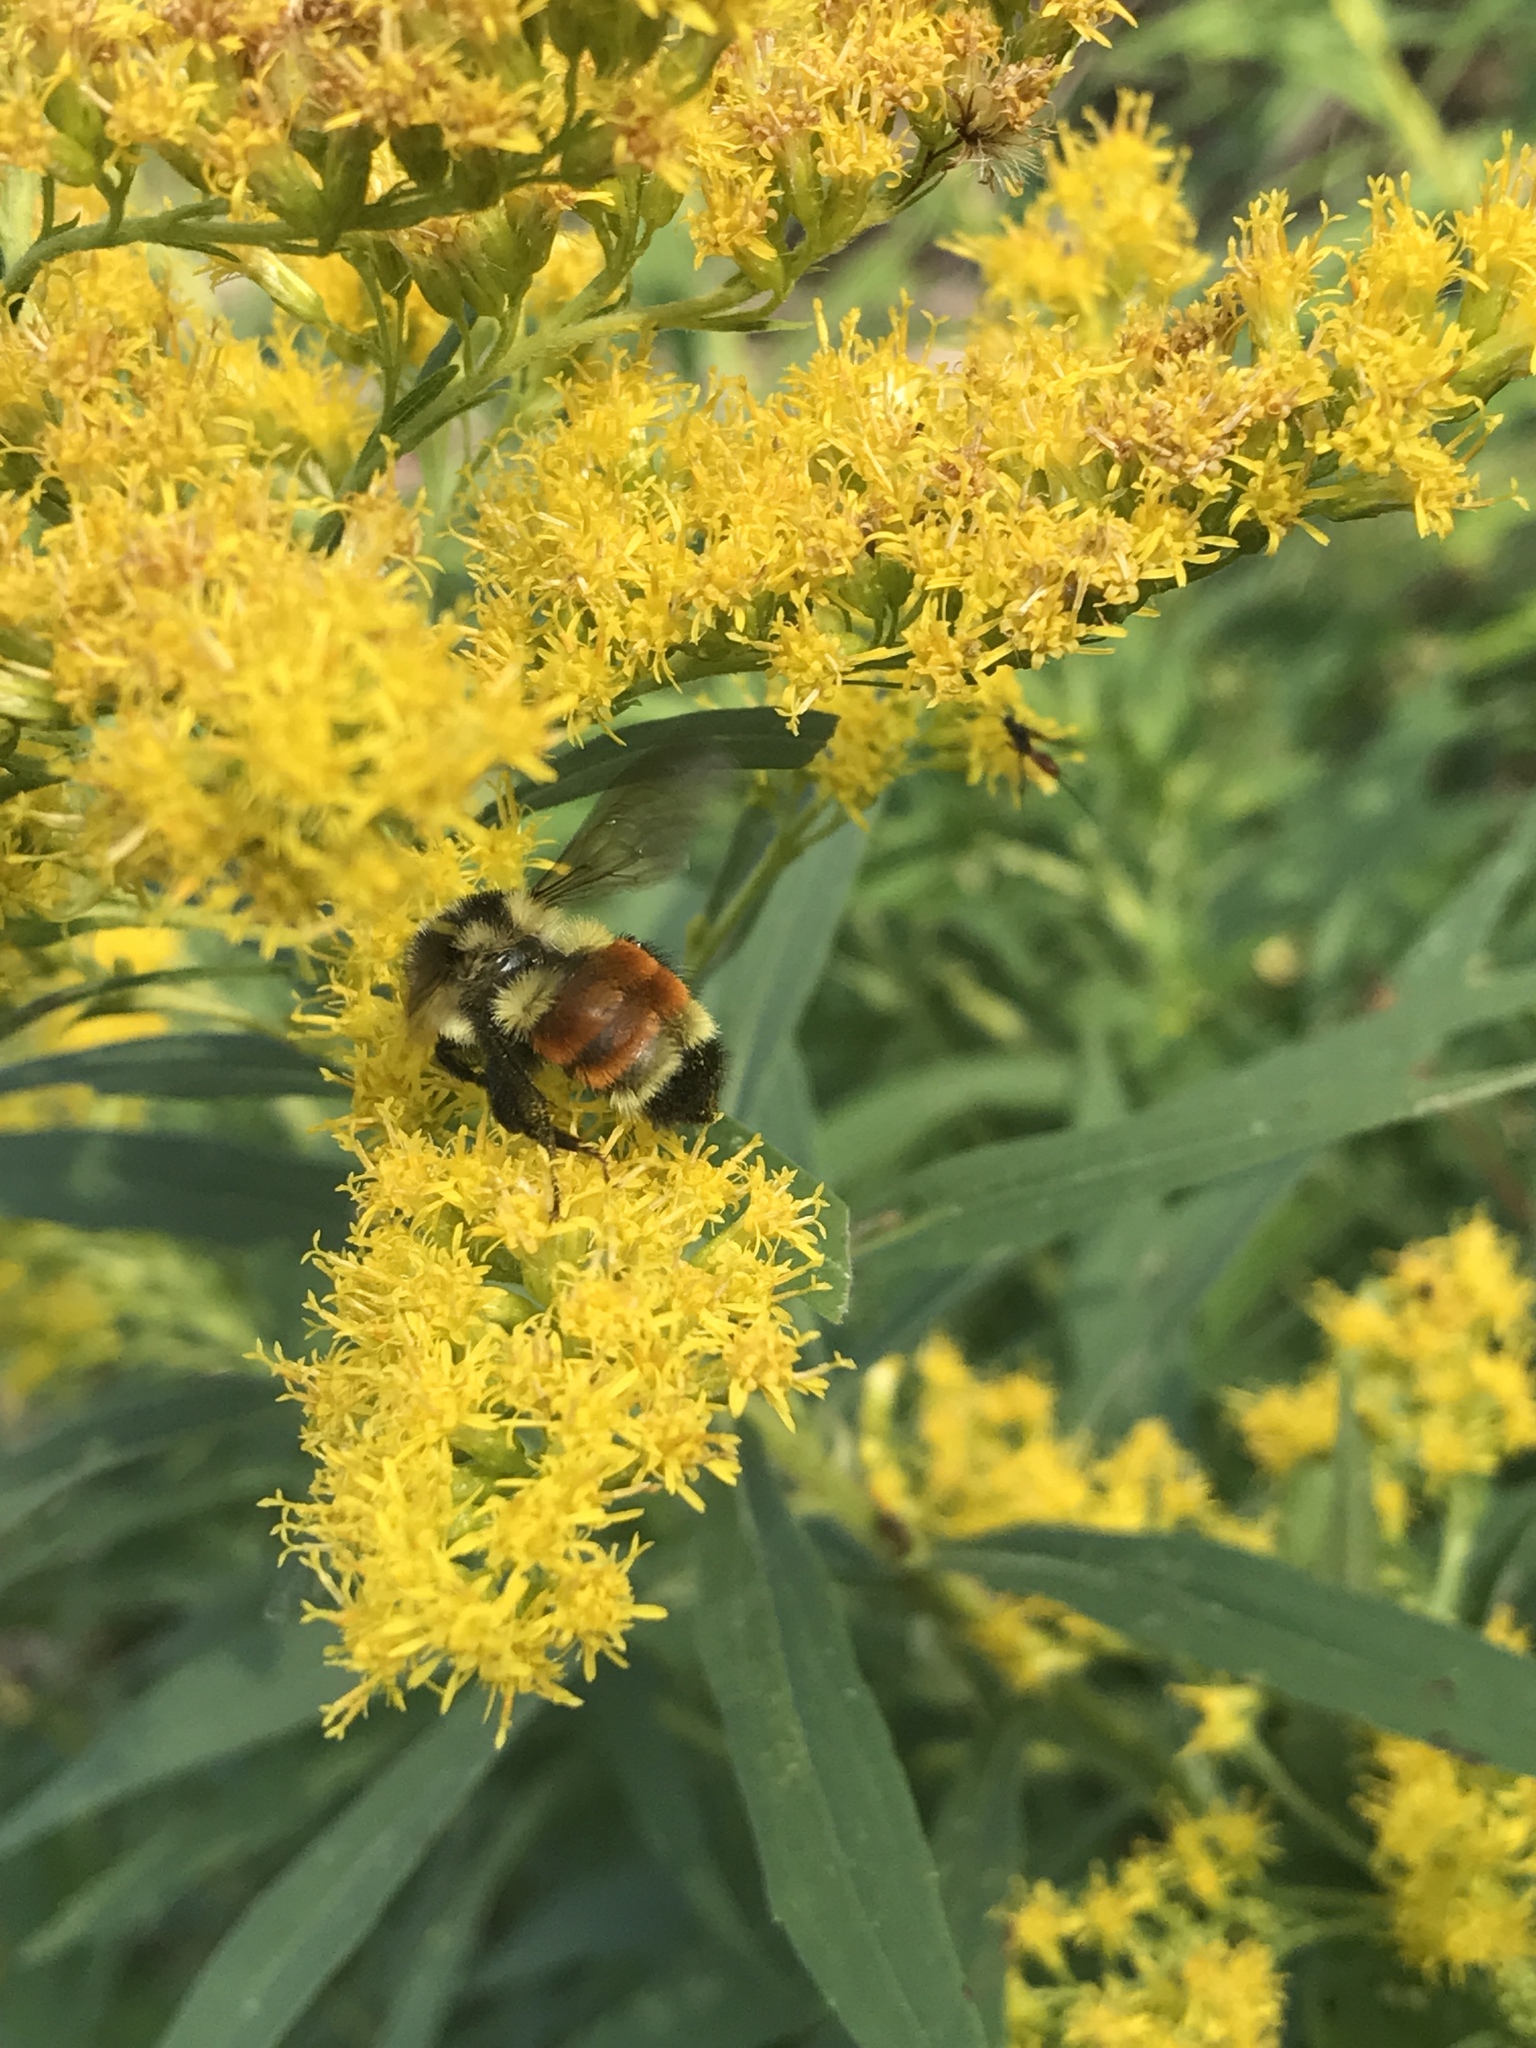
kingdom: Animalia
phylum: Arthropoda
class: Insecta
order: Hymenoptera
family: Apidae
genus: Bombus
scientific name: Bombus ternarius
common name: Tri-colored bumble bee
